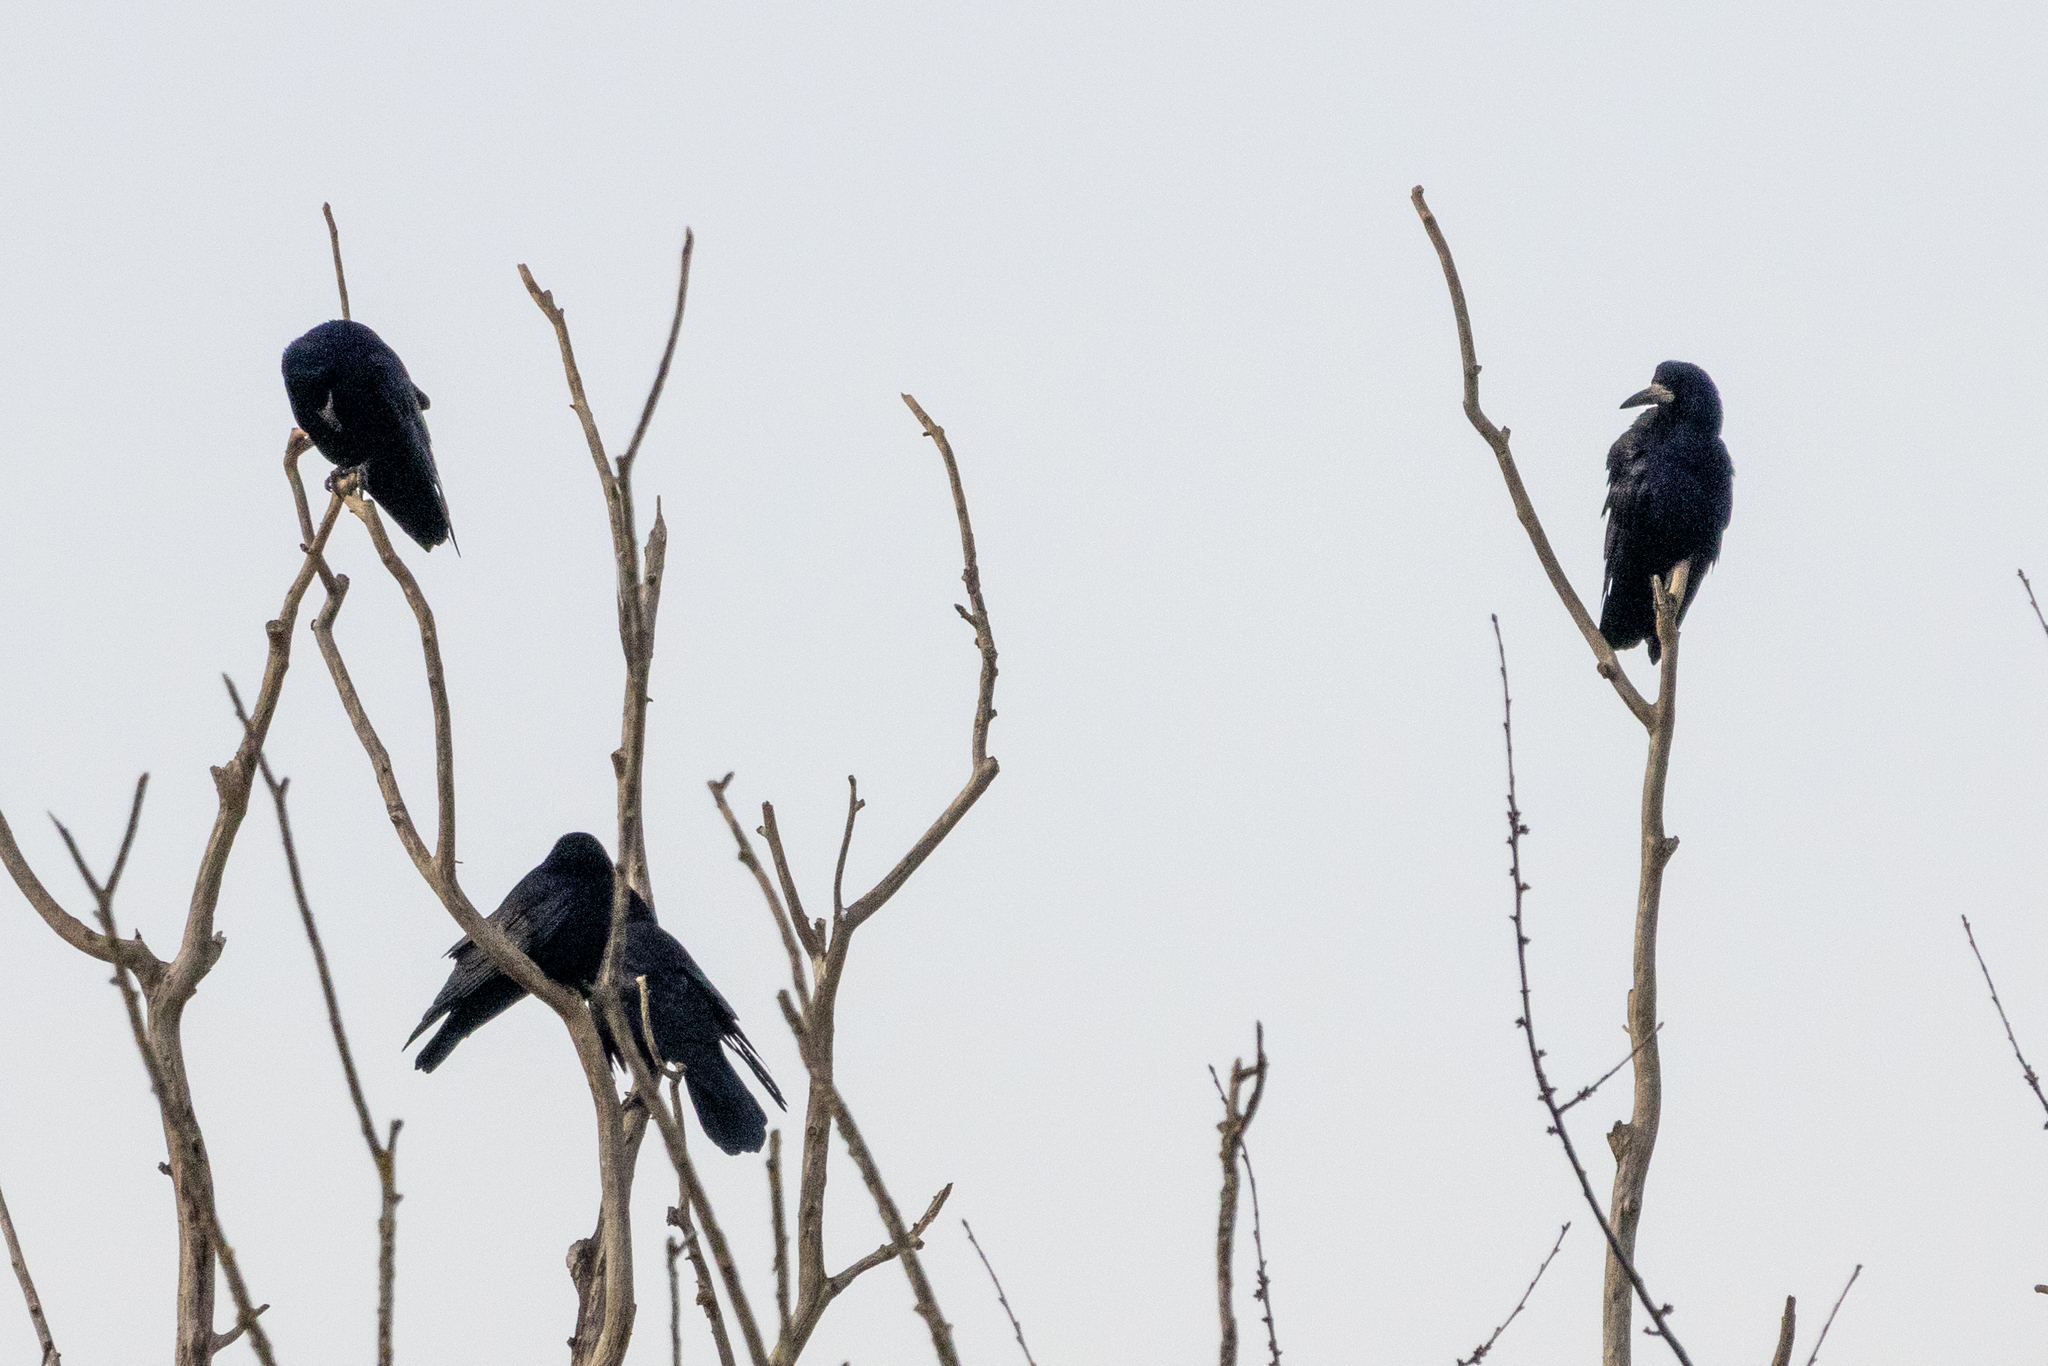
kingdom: Animalia
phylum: Chordata
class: Aves
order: Passeriformes
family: Corvidae
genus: Corvus
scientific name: Corvus frugilegus
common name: Rook
